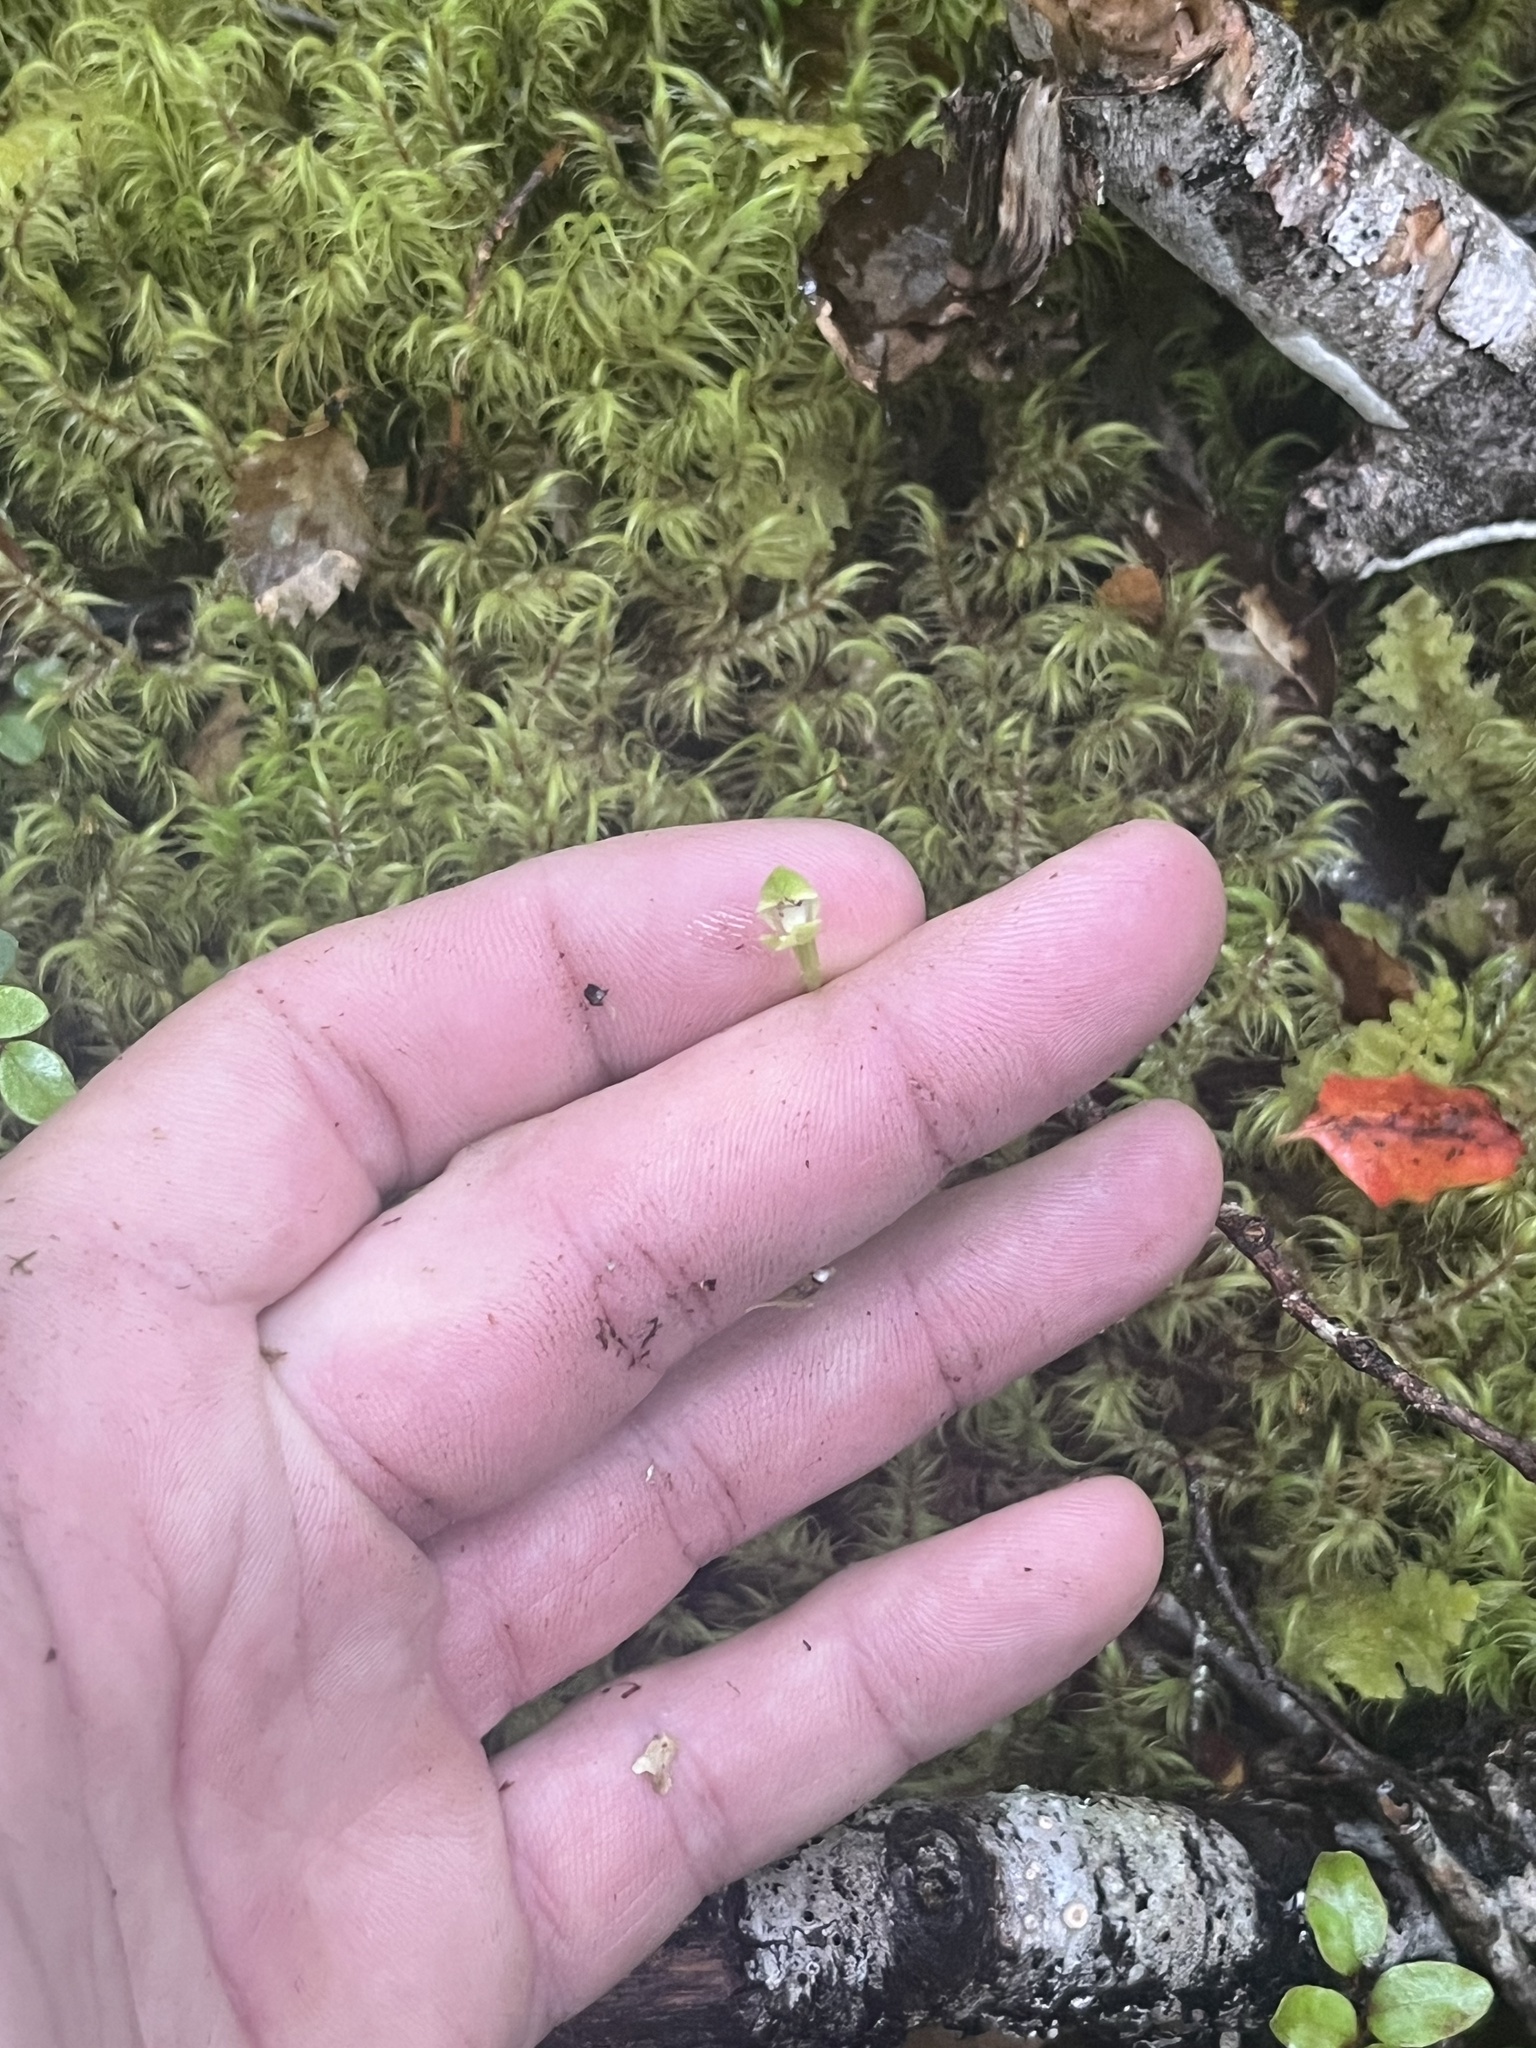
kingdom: Plantae
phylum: Tracheophyta
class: Liliopsida
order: Asparagales
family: Orchidaceae
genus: Caladenia
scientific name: Caladenia chlorostyla
